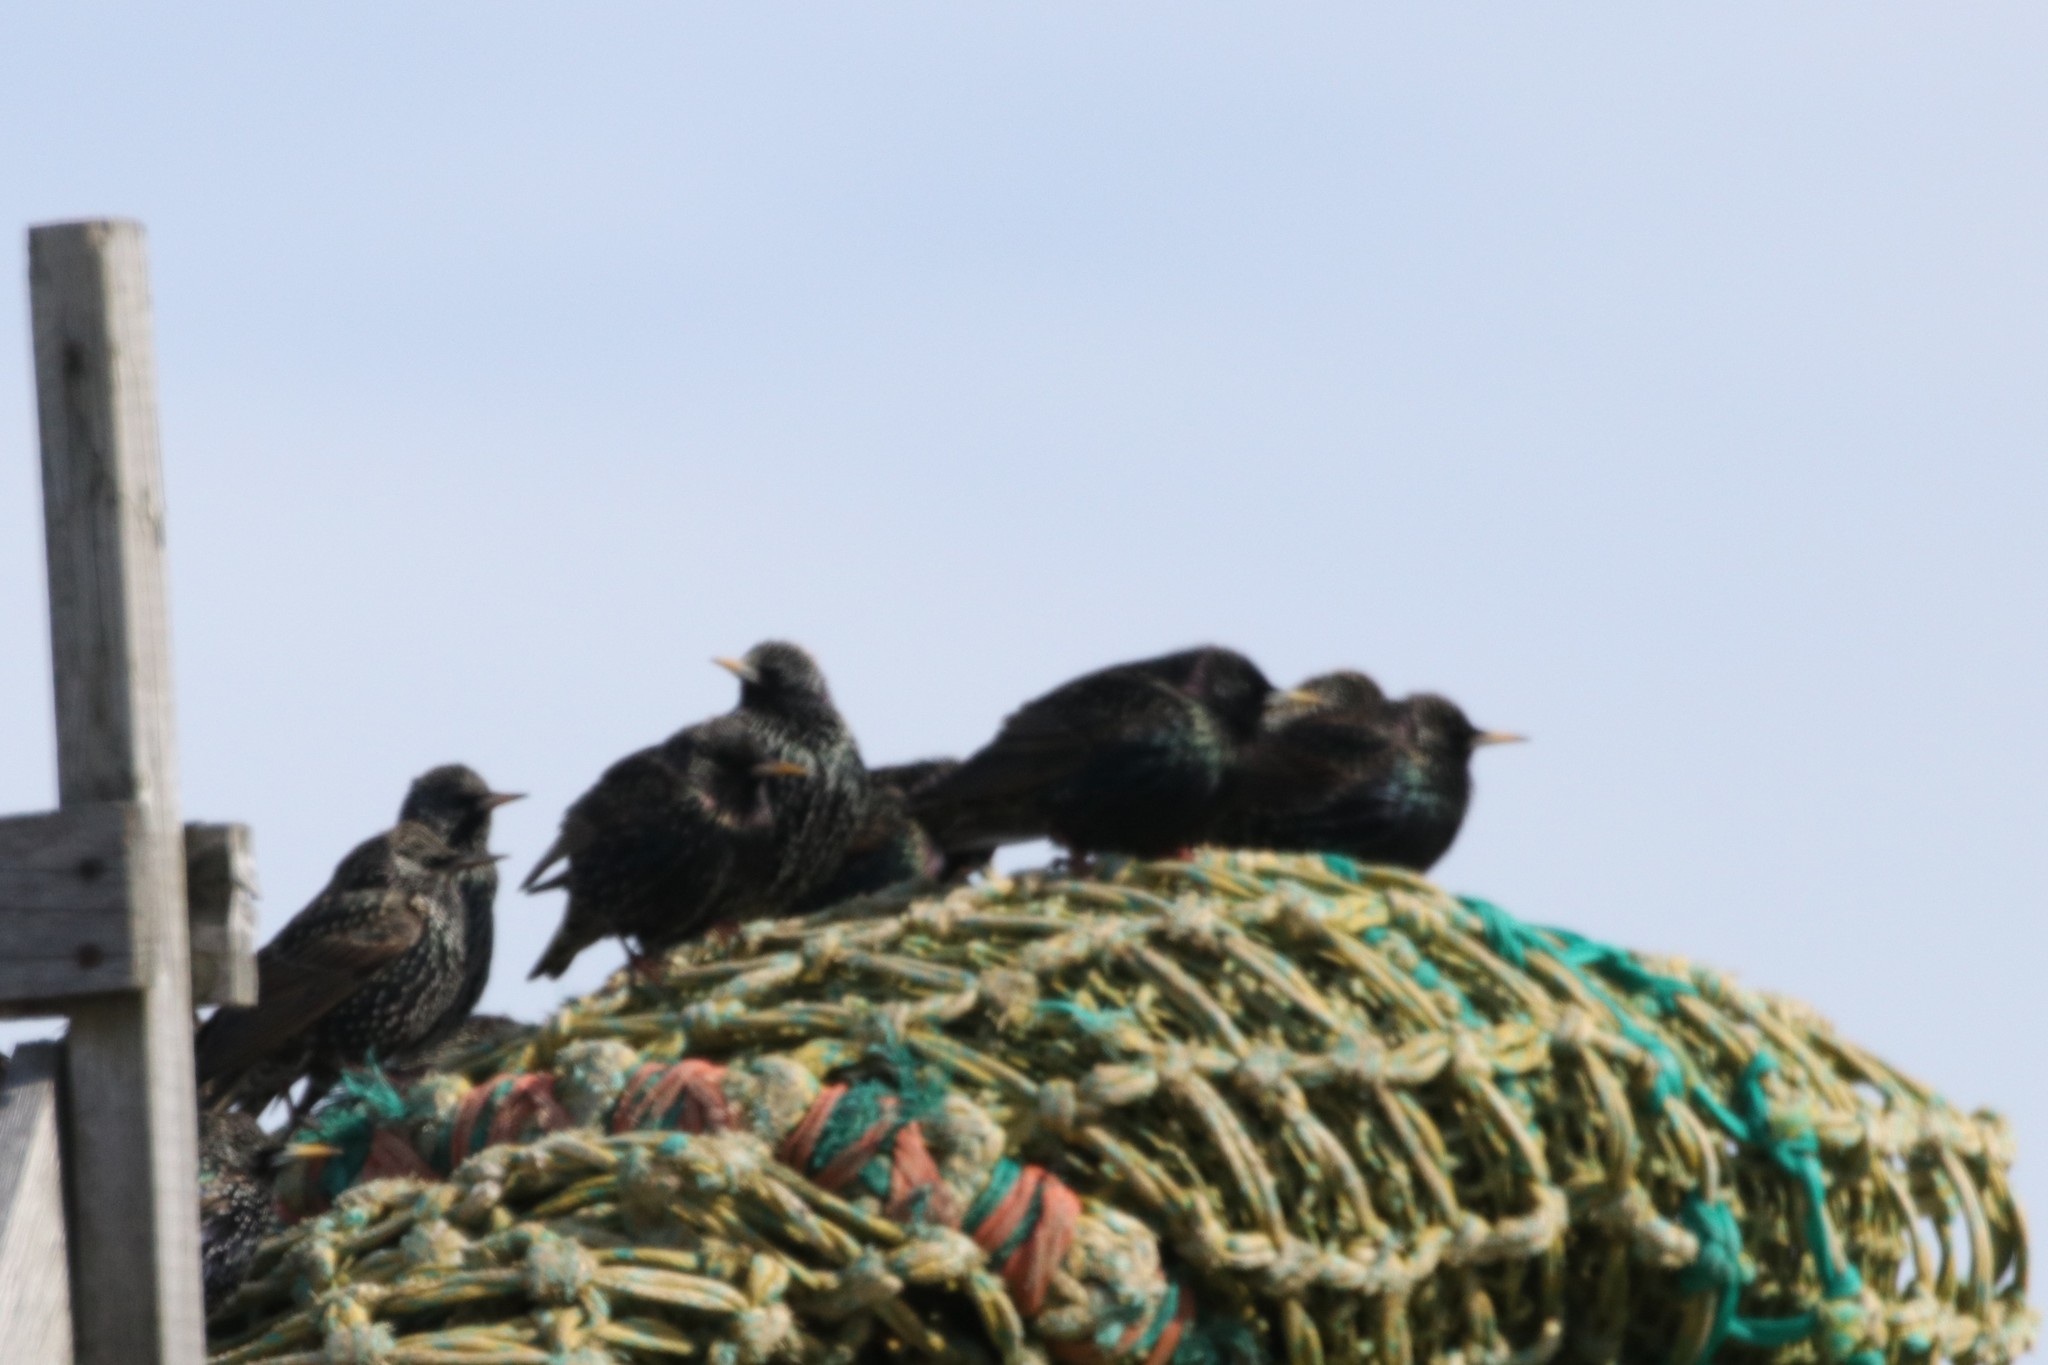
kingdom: Animalia
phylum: Chordata
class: Aves
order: Passeriformes
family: Sturnidae
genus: Sturnus
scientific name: Sturnus vulgaris
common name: Common starling
